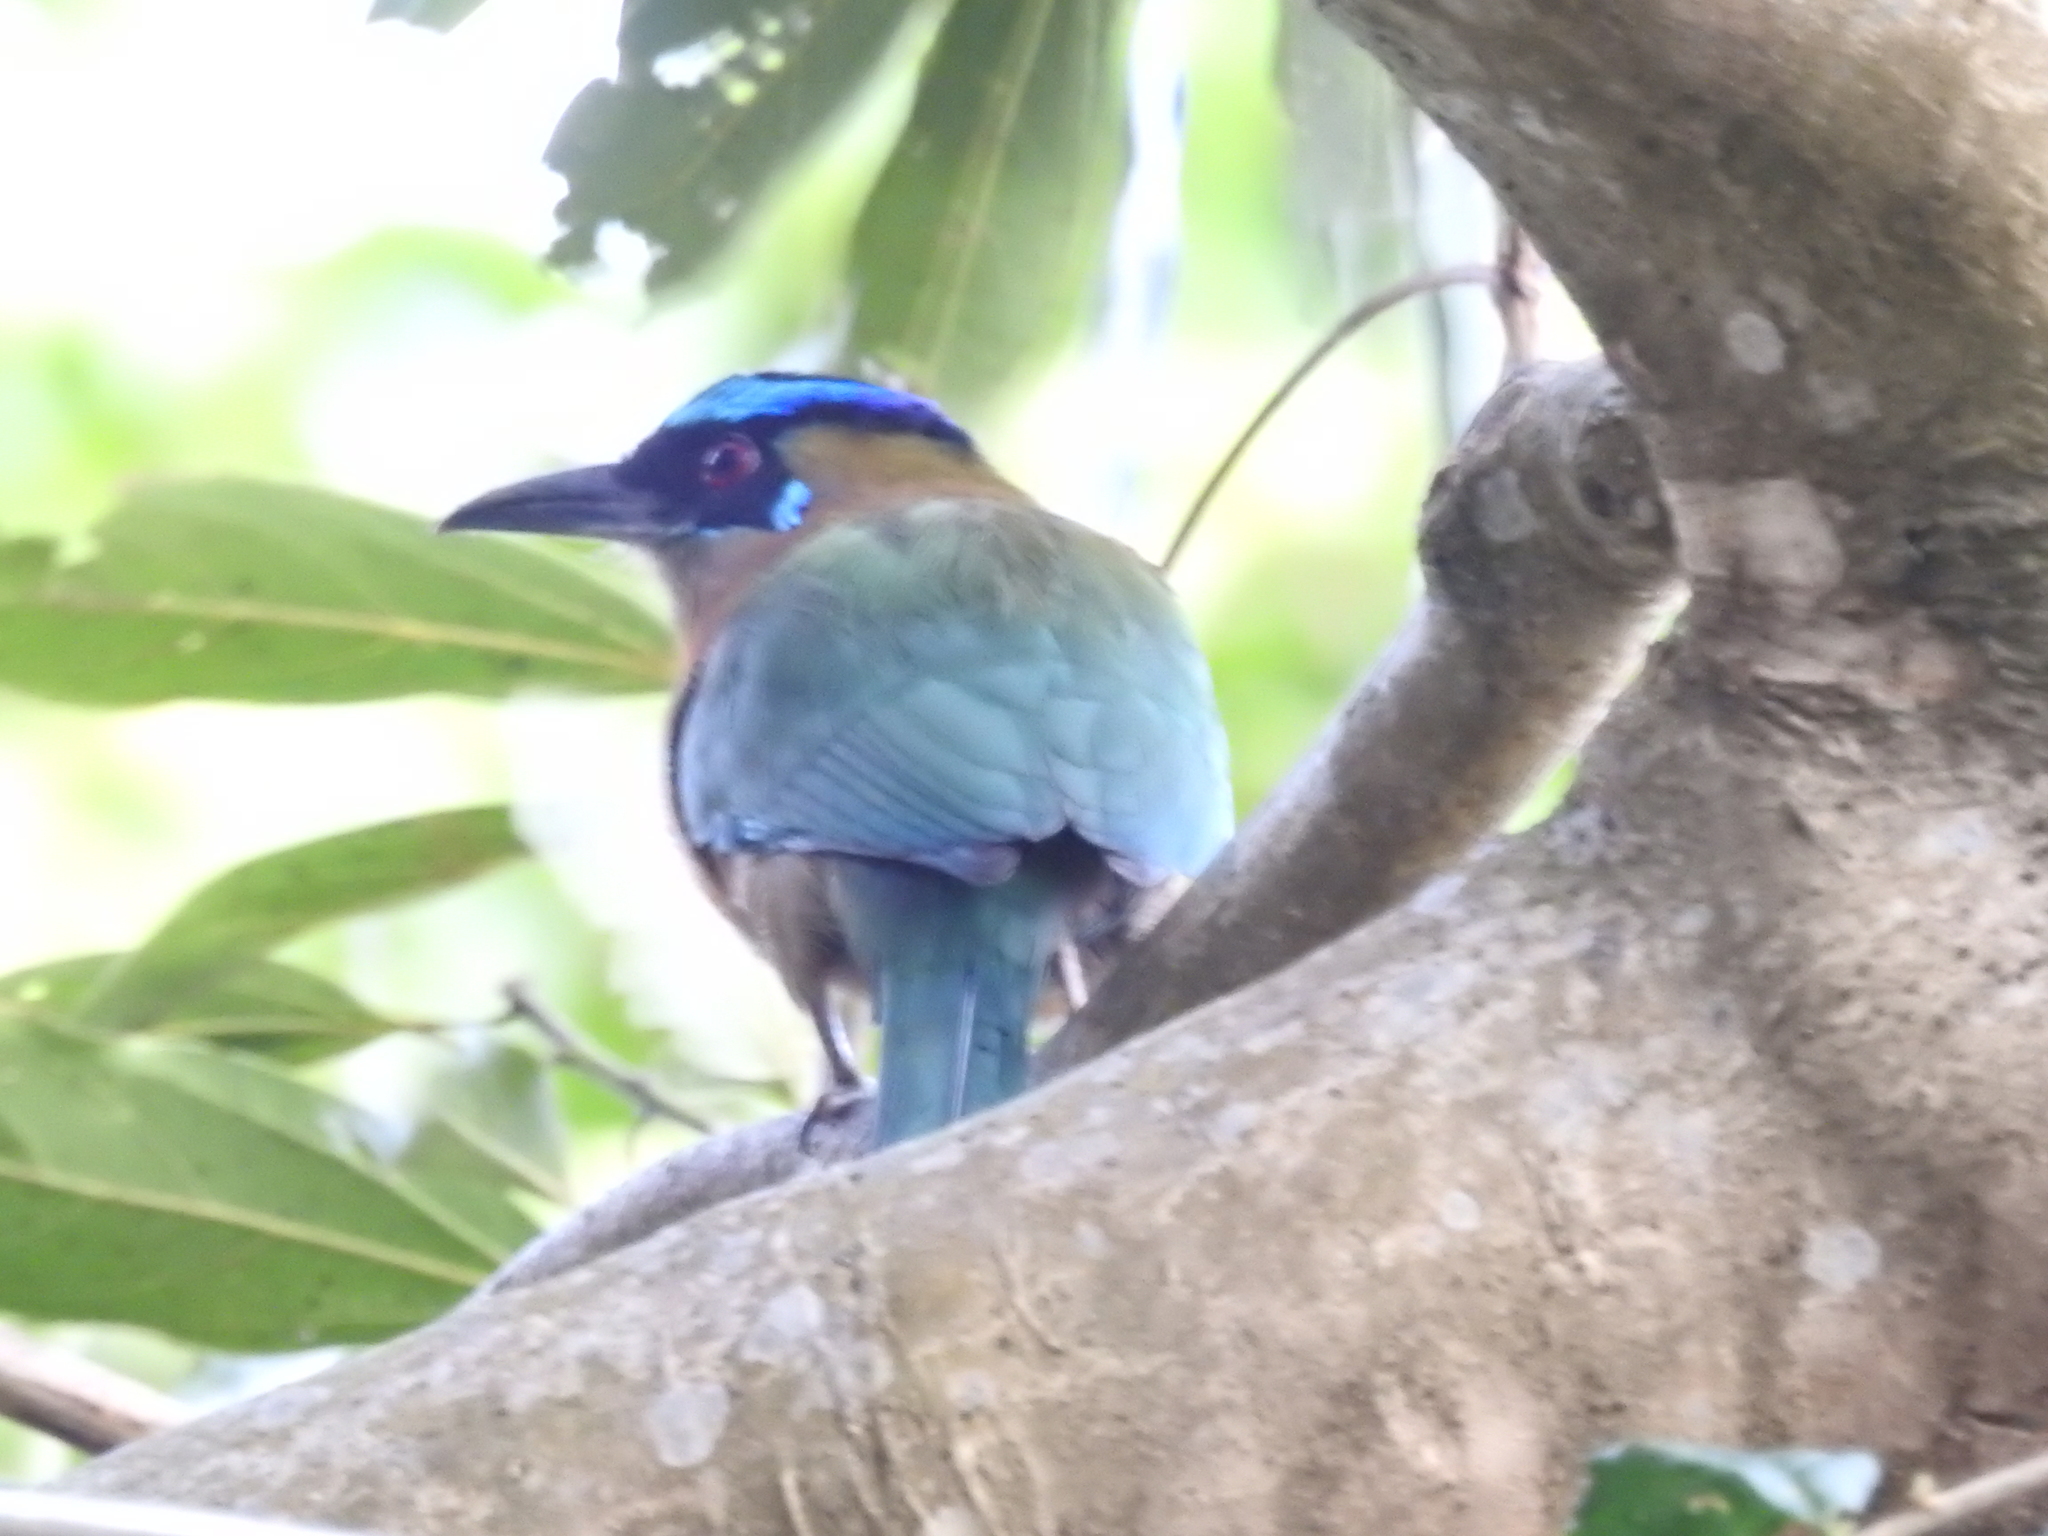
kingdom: Animalia
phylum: Chordata
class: Aves
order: Coraciiformes
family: Momotidae
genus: Momotus
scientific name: Momotus lessonii
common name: Lesson's motmot
